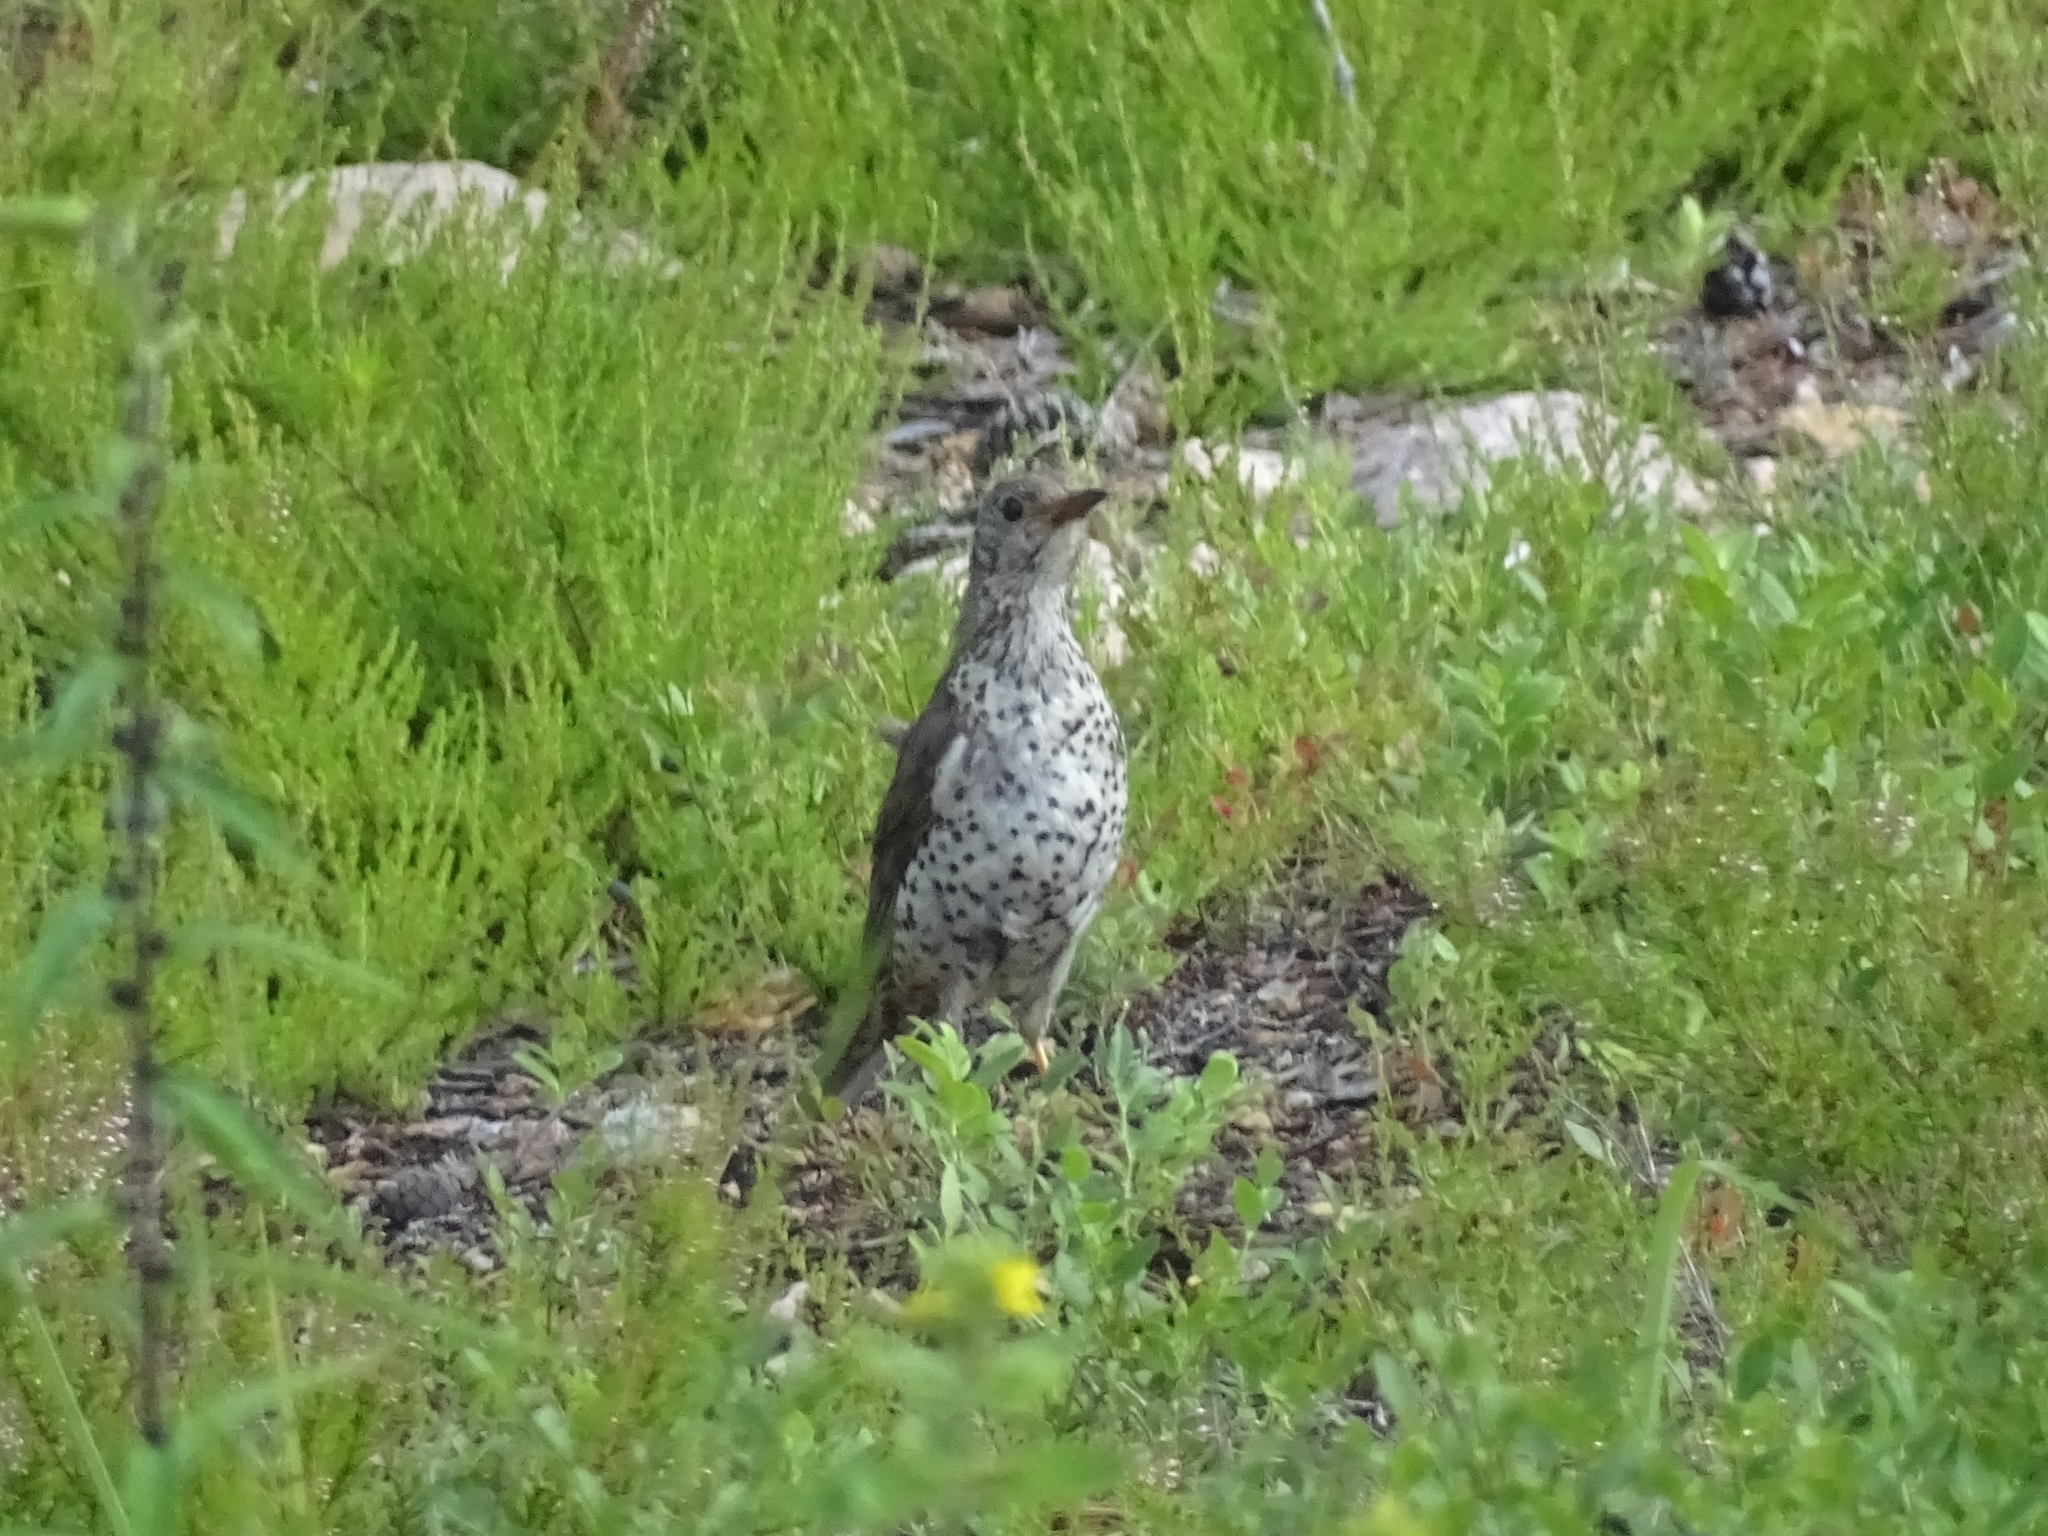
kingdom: Animalia
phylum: Chordata
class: Aves
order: Passeriformes
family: Turdidae
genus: Turdus
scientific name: Turdus viscivorus
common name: Mistle thrush
